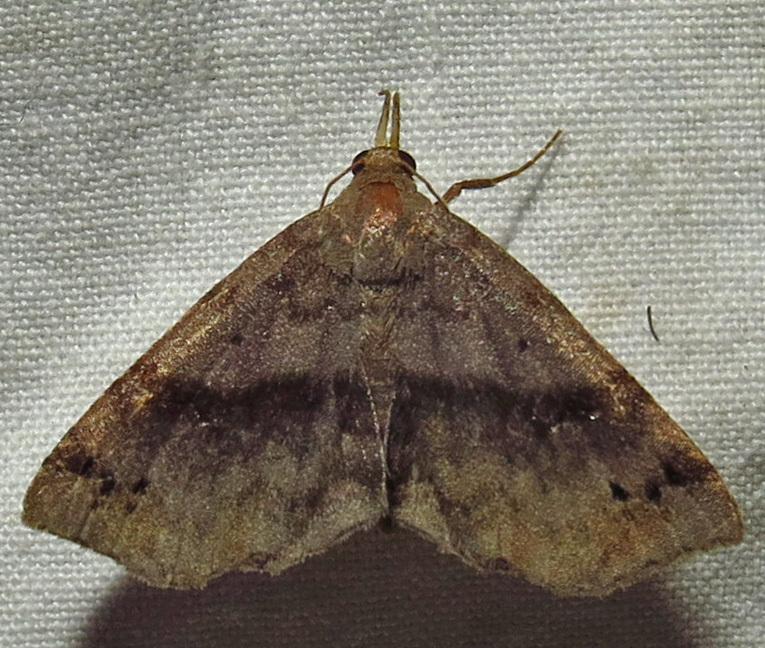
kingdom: Animalia
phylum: Arthropoda
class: Insecta
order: Lepidoptera
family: Erebidae
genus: Spargaloma
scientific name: Spargaloma sexpunctata
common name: Six-spotted gray
